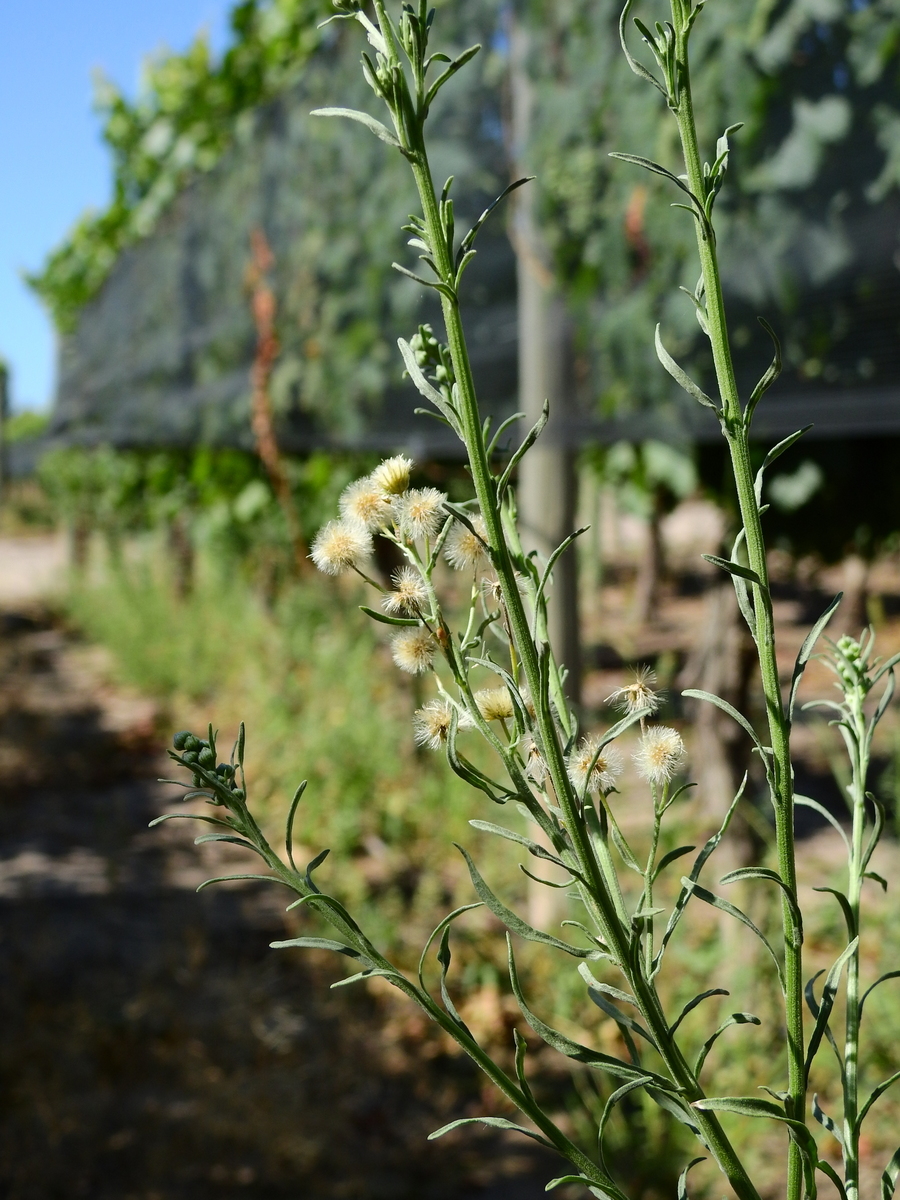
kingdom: Plantae
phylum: Tracheophyta
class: Magnoliopsida
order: Asterales
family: Asteraceae
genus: Erigeron
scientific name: Erigeron bonariensis
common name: Argentine fleabane
